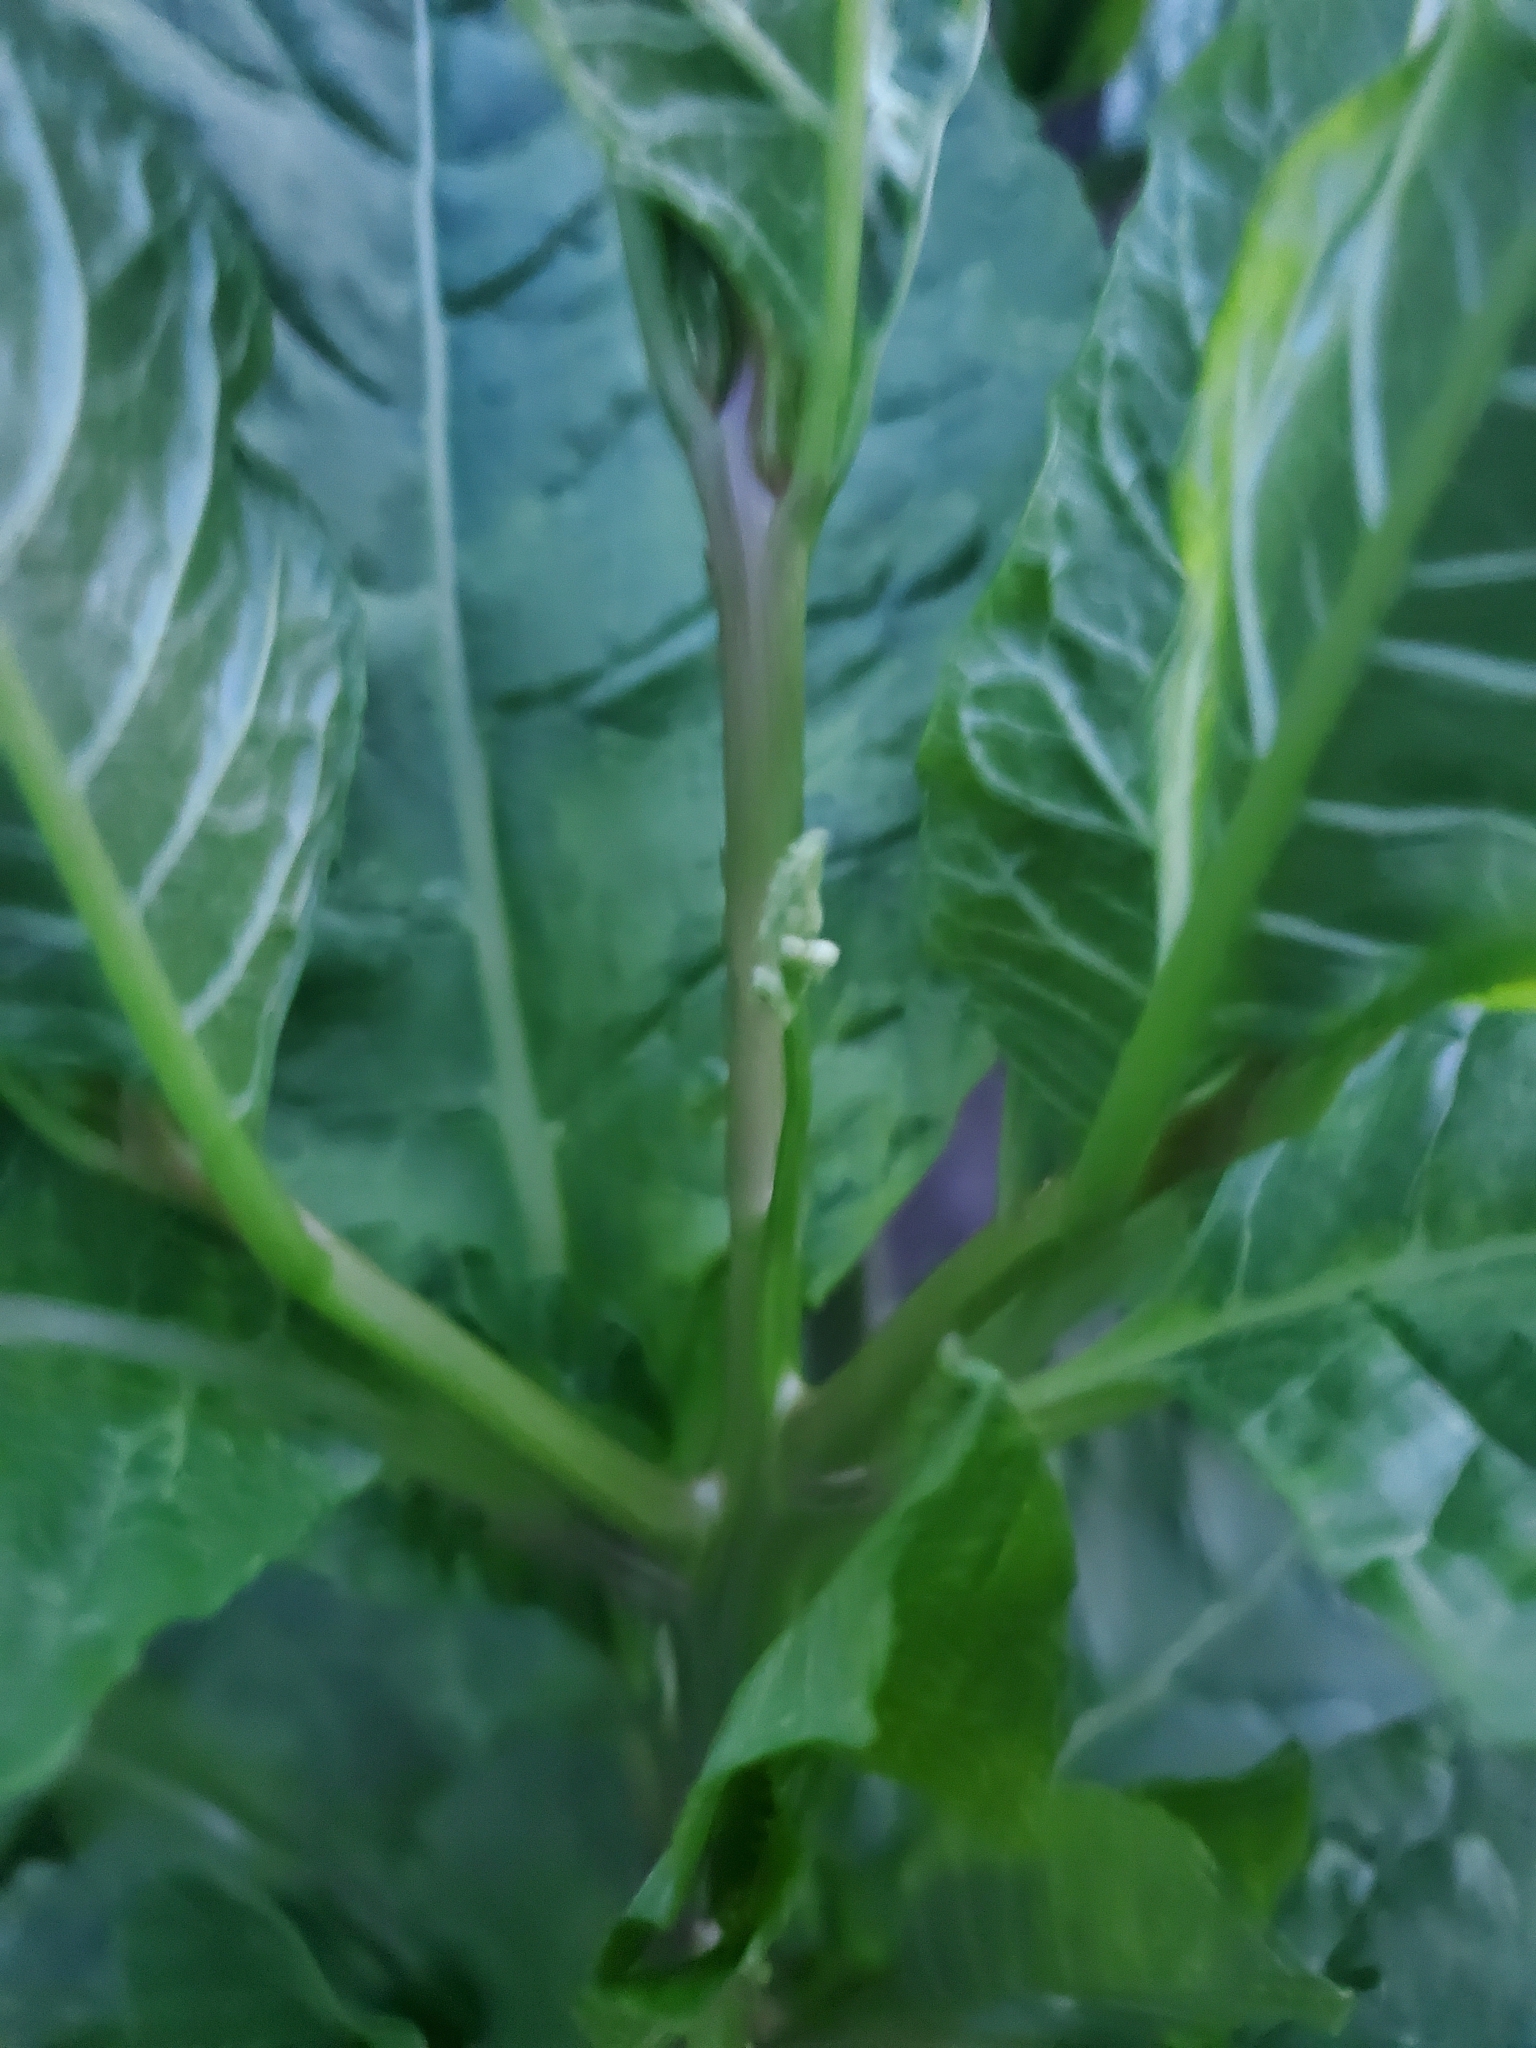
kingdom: Plantae
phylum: Tracheophyta
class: Magnoliopsida
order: Caryophyllales
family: Phytolaccaceae
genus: Phytolacca
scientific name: Phytolacca americana
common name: American pokeweed
